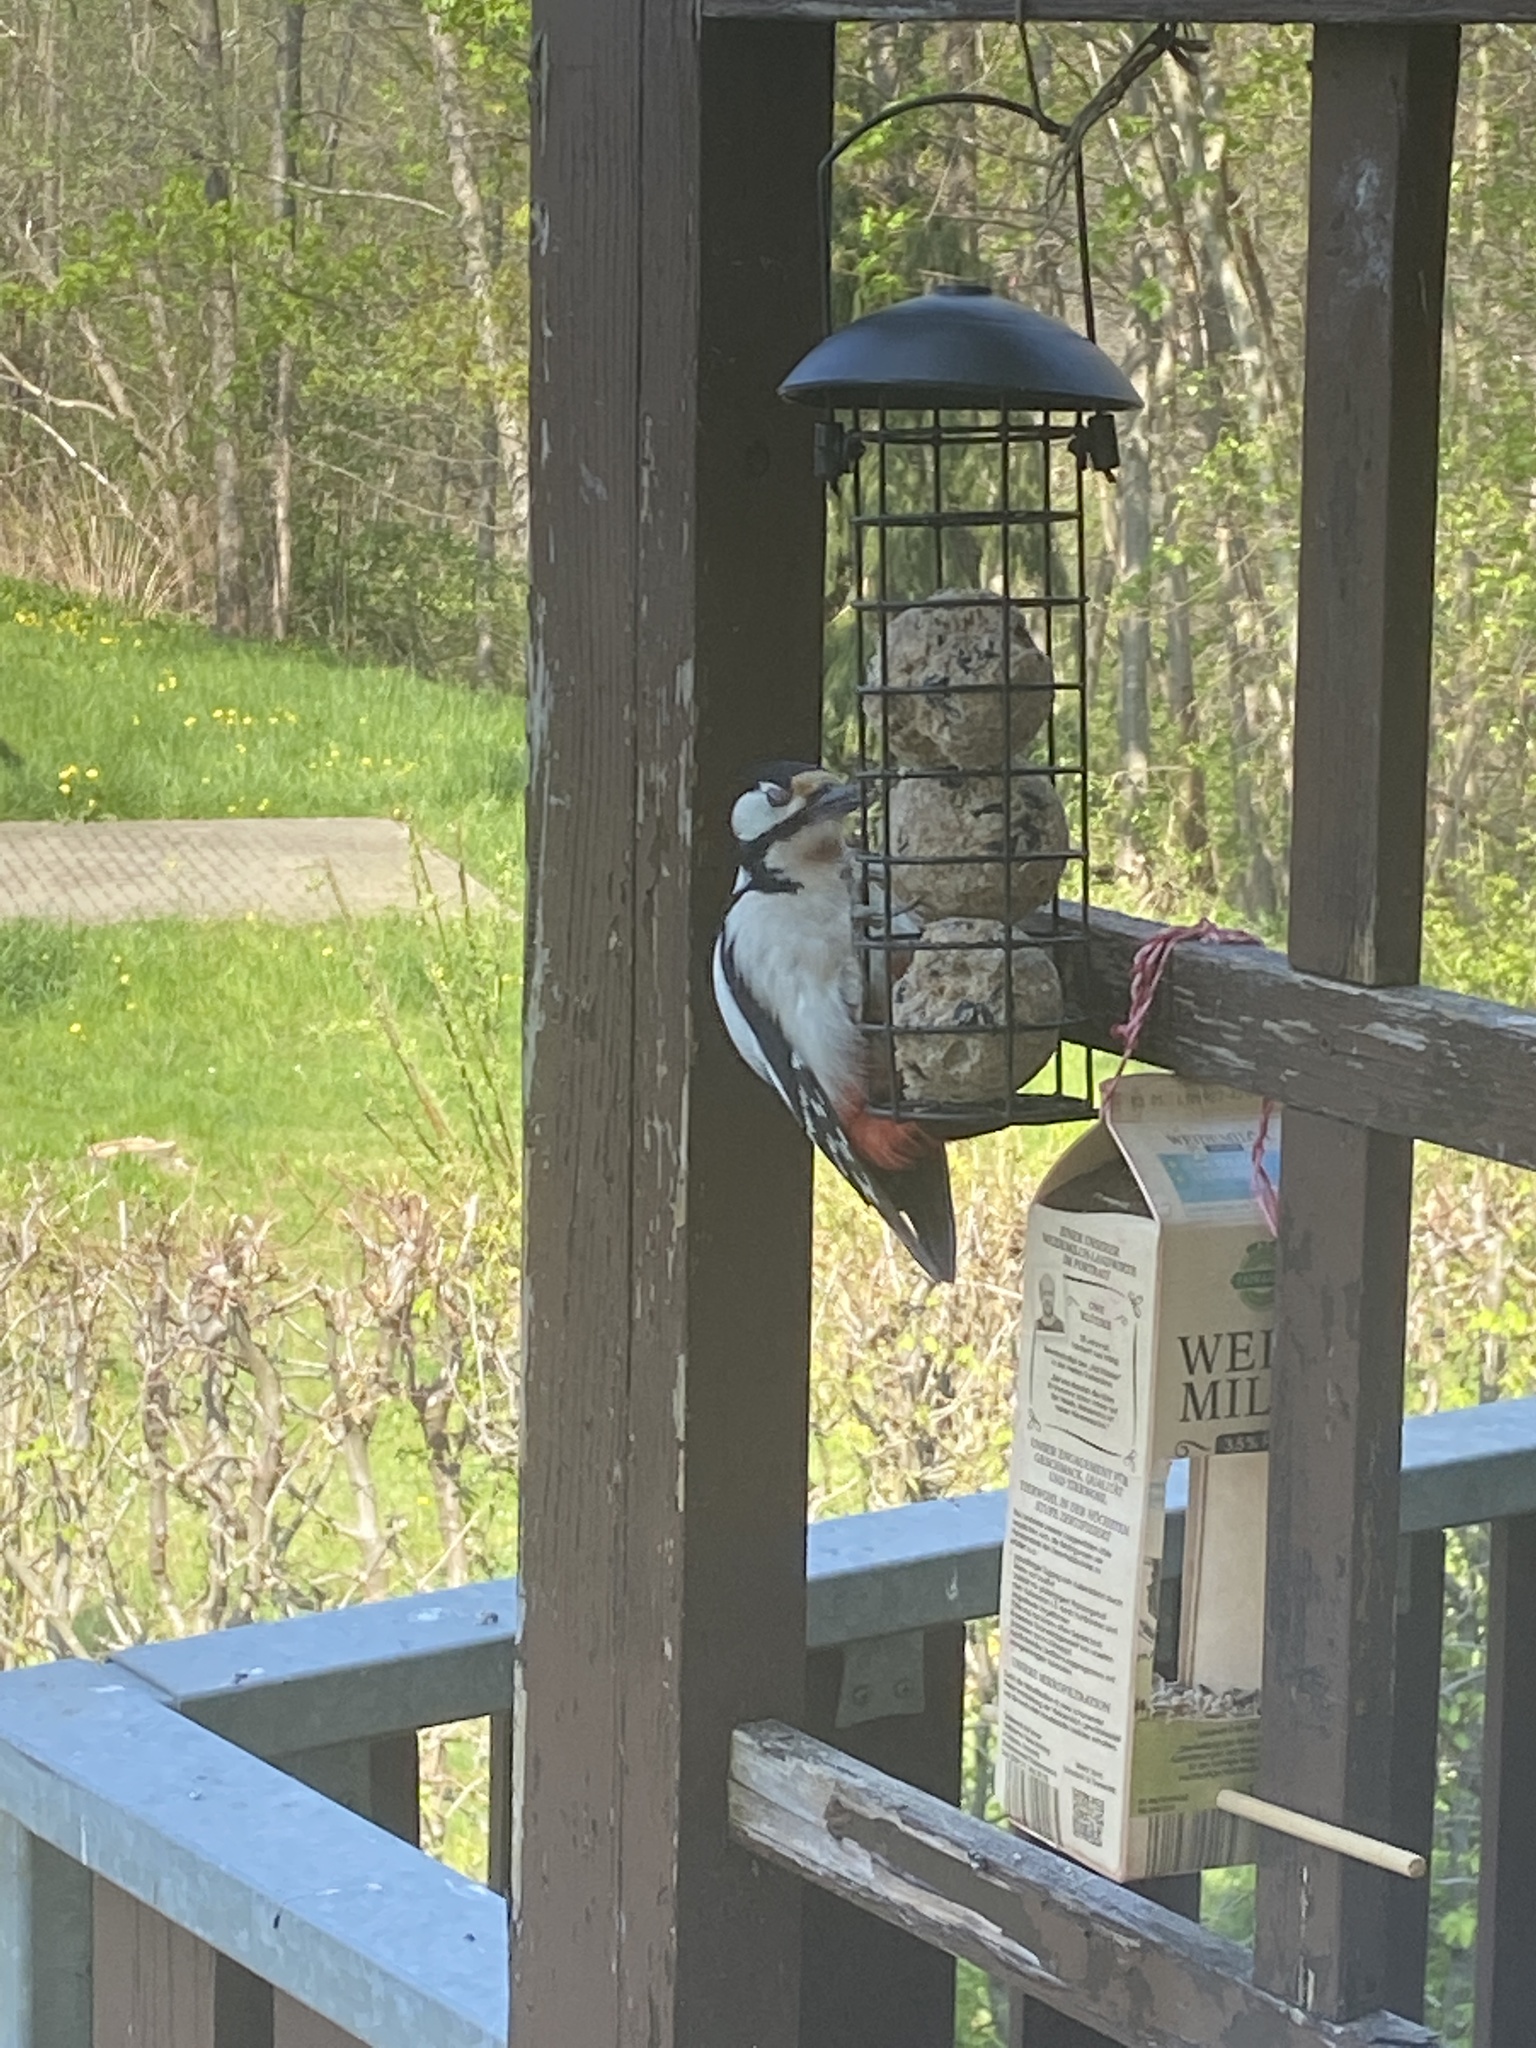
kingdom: Animalia
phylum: Chordata
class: Aves
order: Piciformes
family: Picidae
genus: Dendrocopos
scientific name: Dendrocopos major
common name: Great spotted woodpecker
